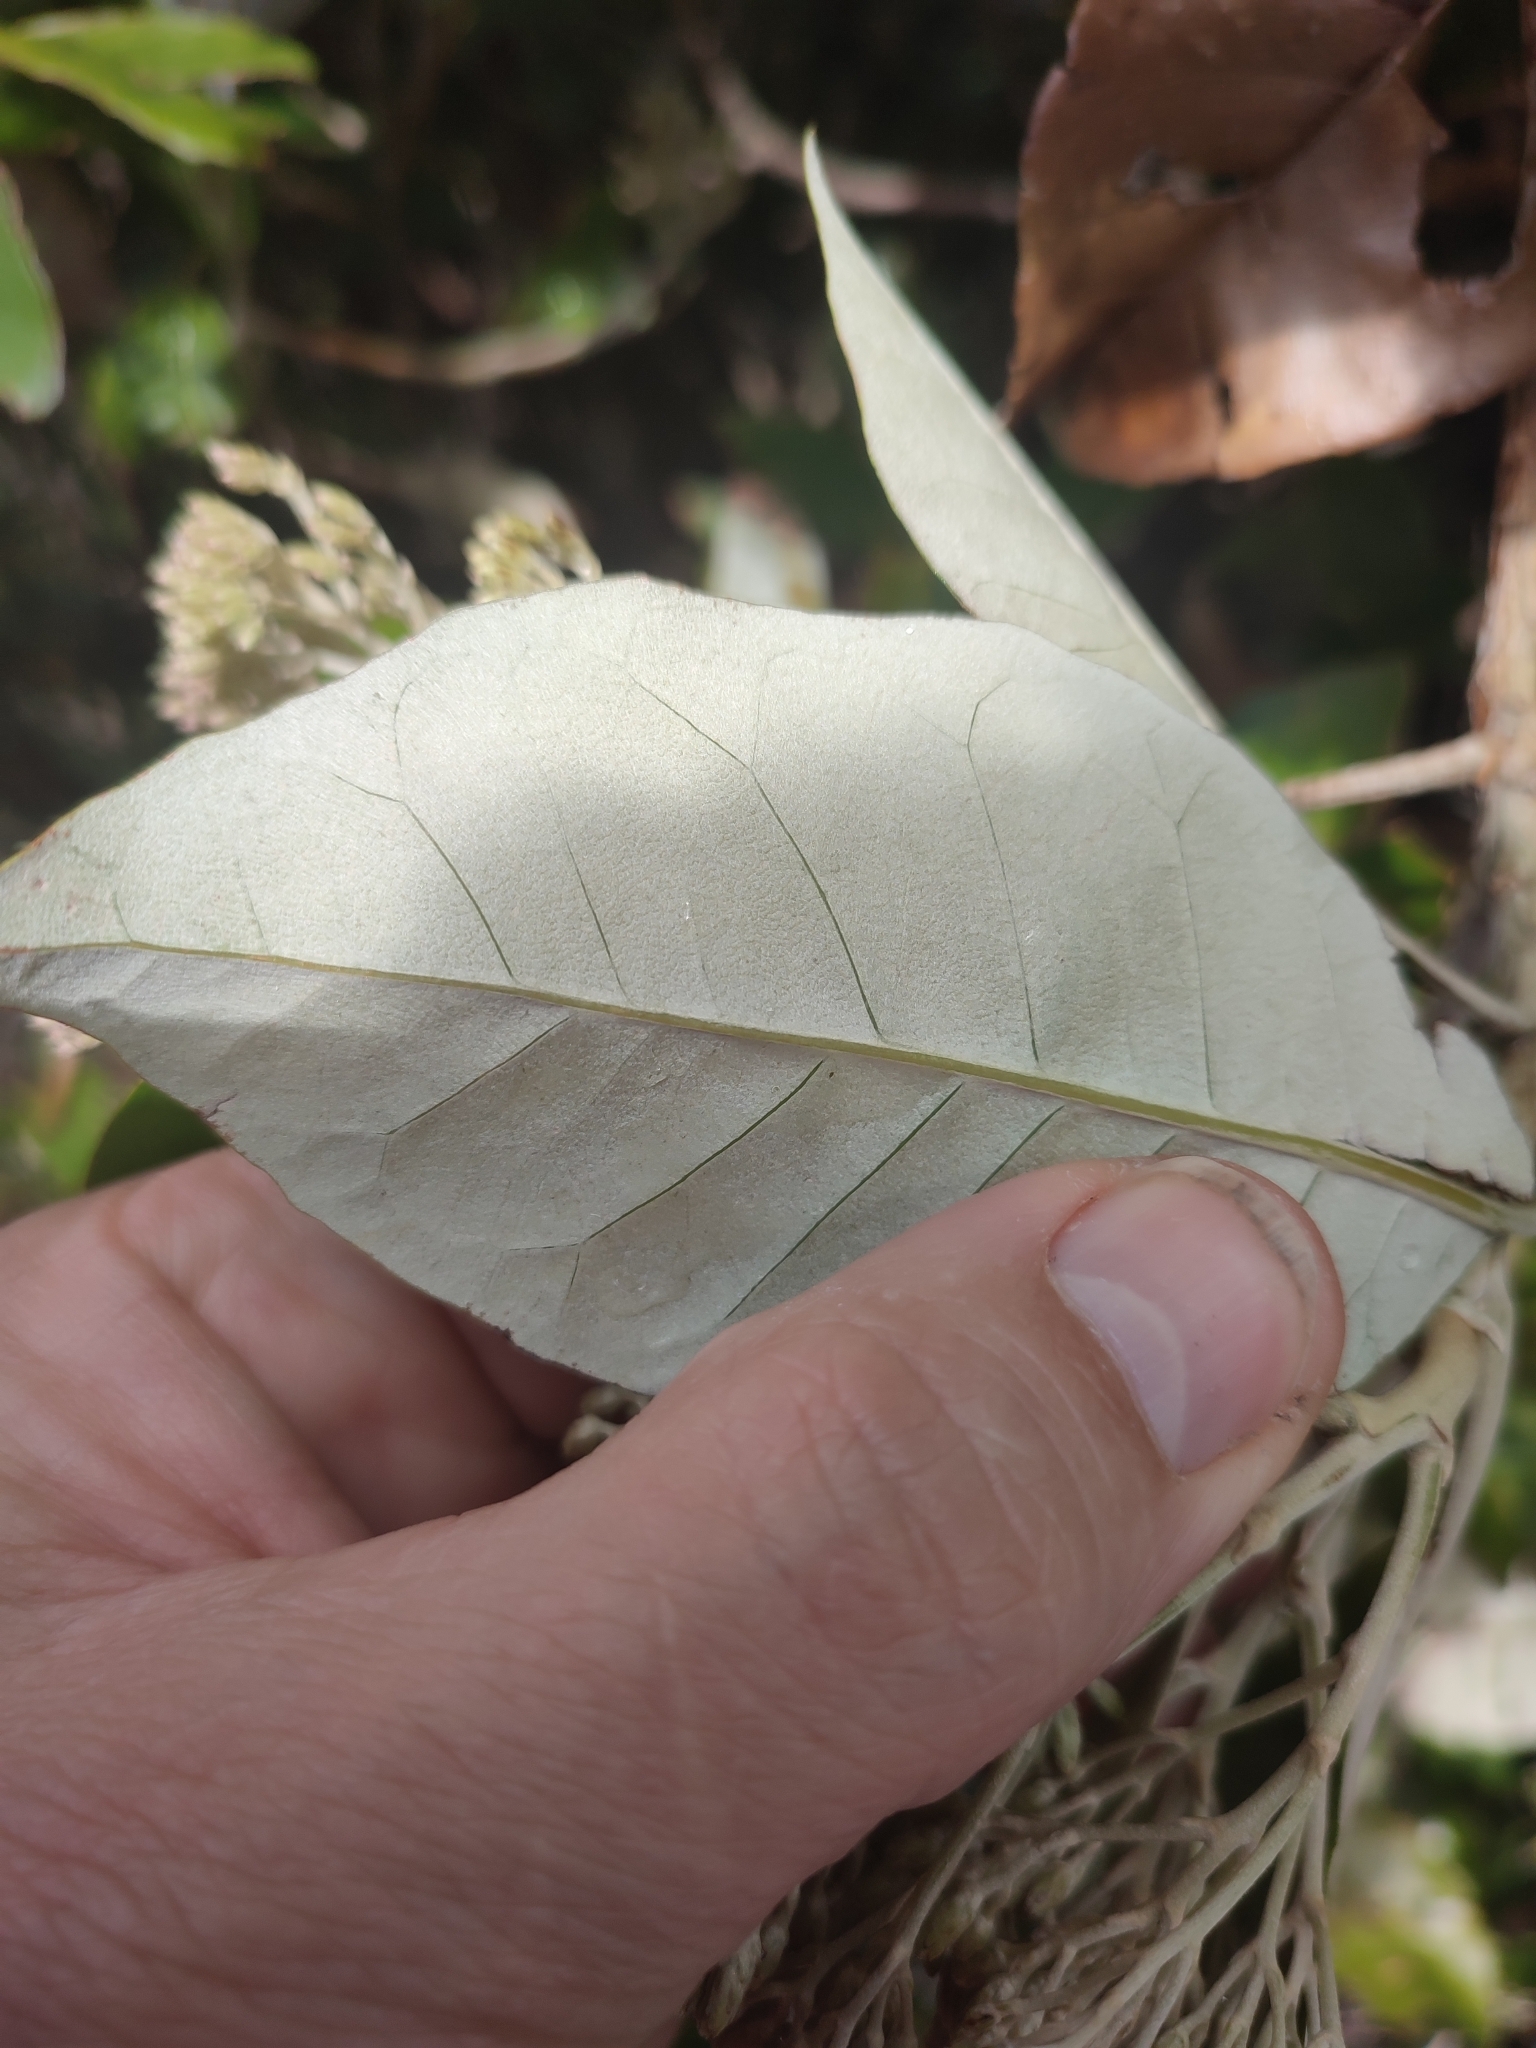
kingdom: Plantae
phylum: Tracheophyta
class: Magnoliopsida
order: Asterales
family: Asteraceae
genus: Olearia
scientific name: Olearia argophylla
